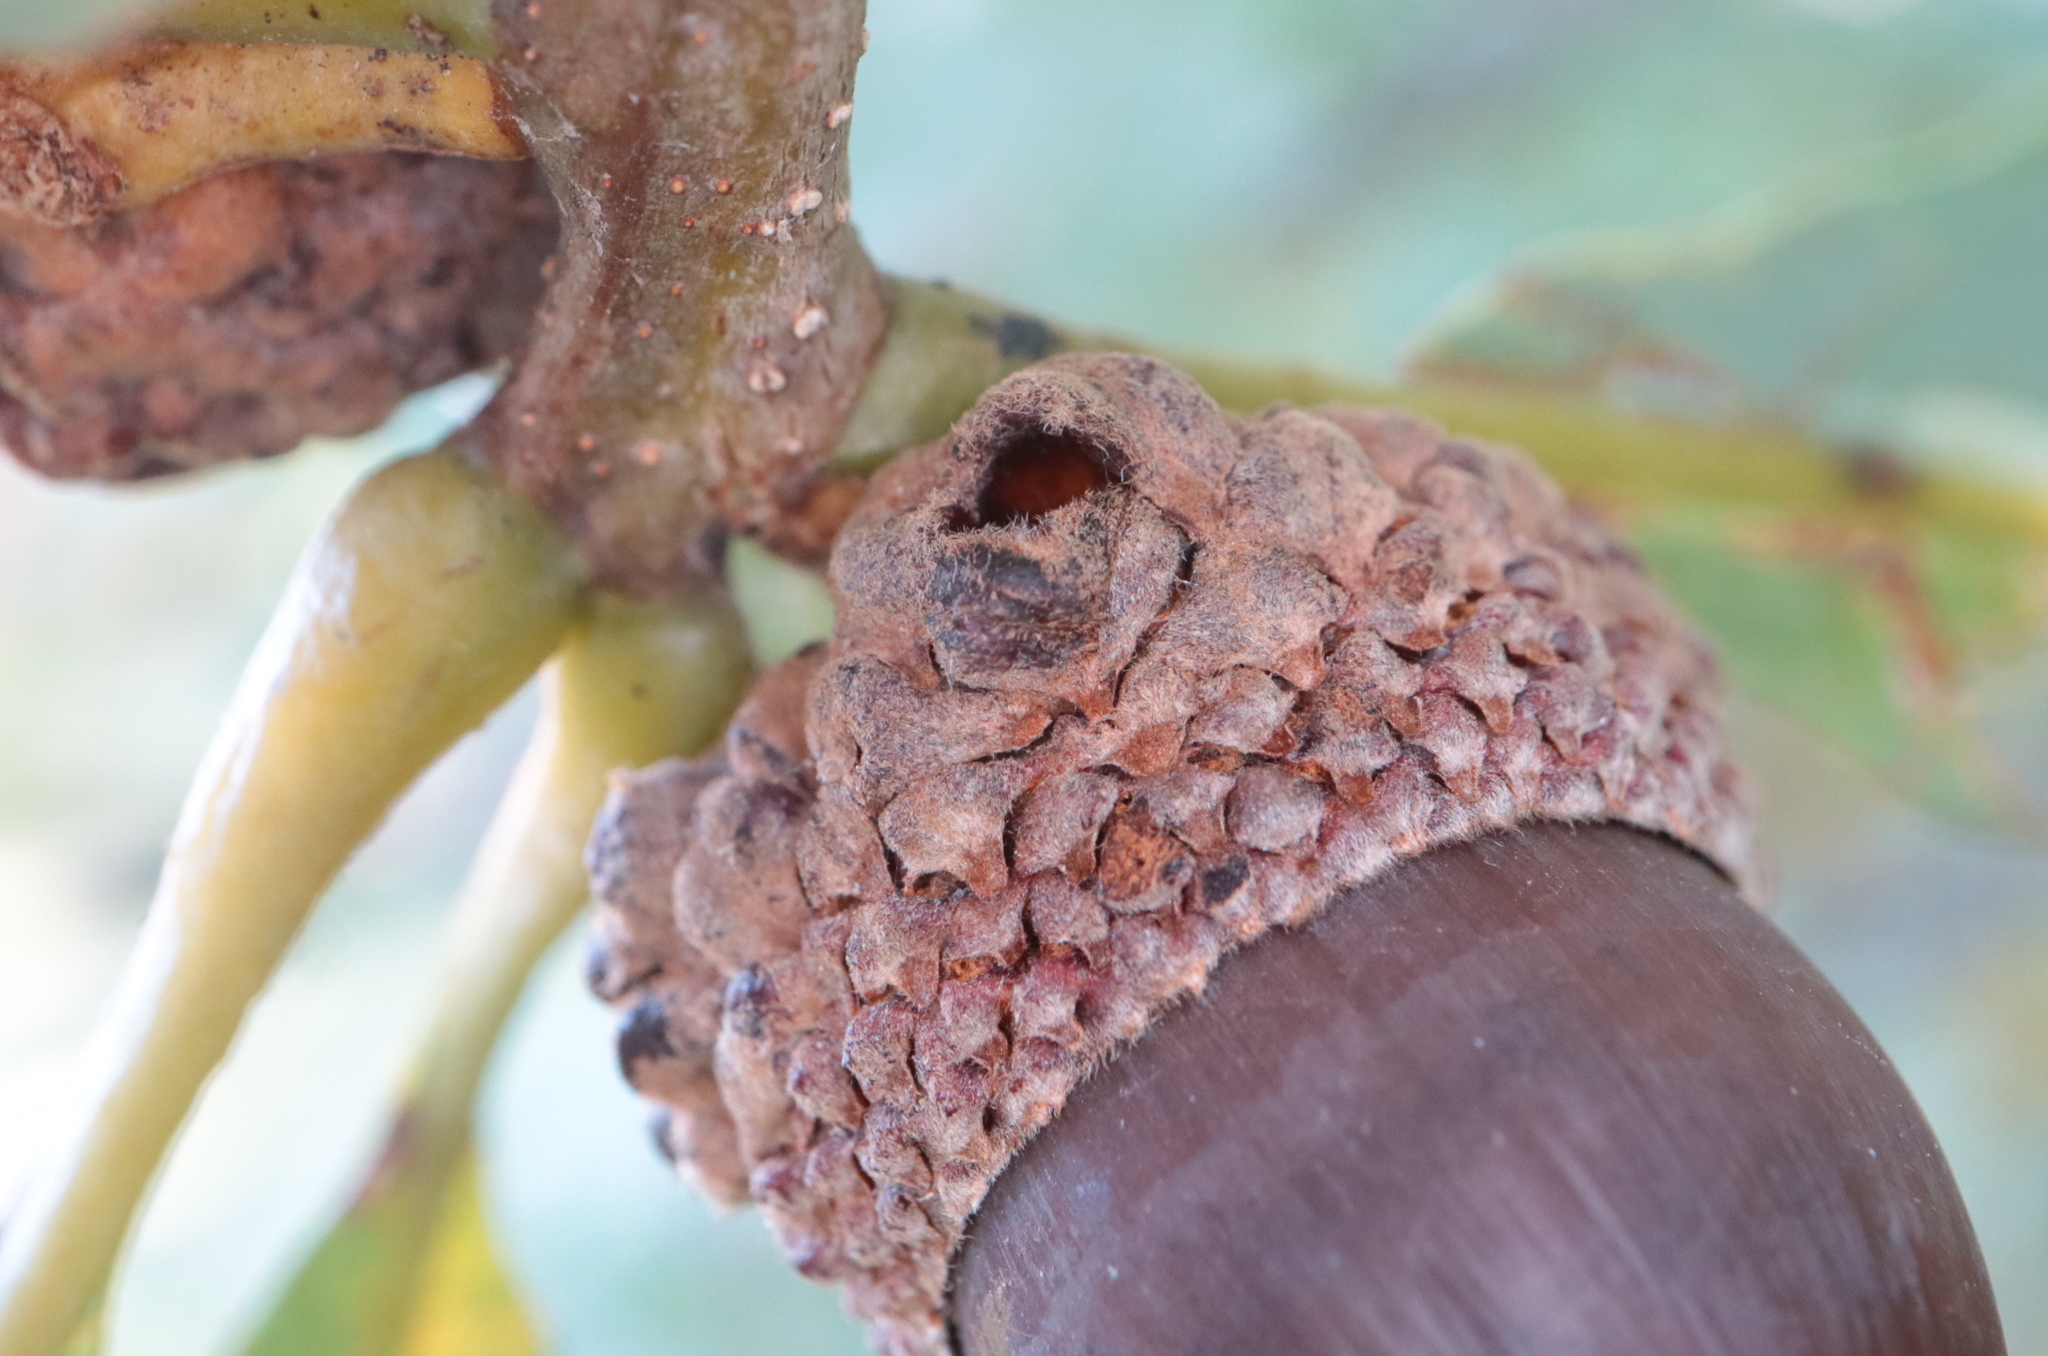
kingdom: Animalia
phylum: Arthropoda
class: Insecta
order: Hymenoptera
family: Cynipidae
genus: Callirhytis
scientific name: Callirhytis glandium
